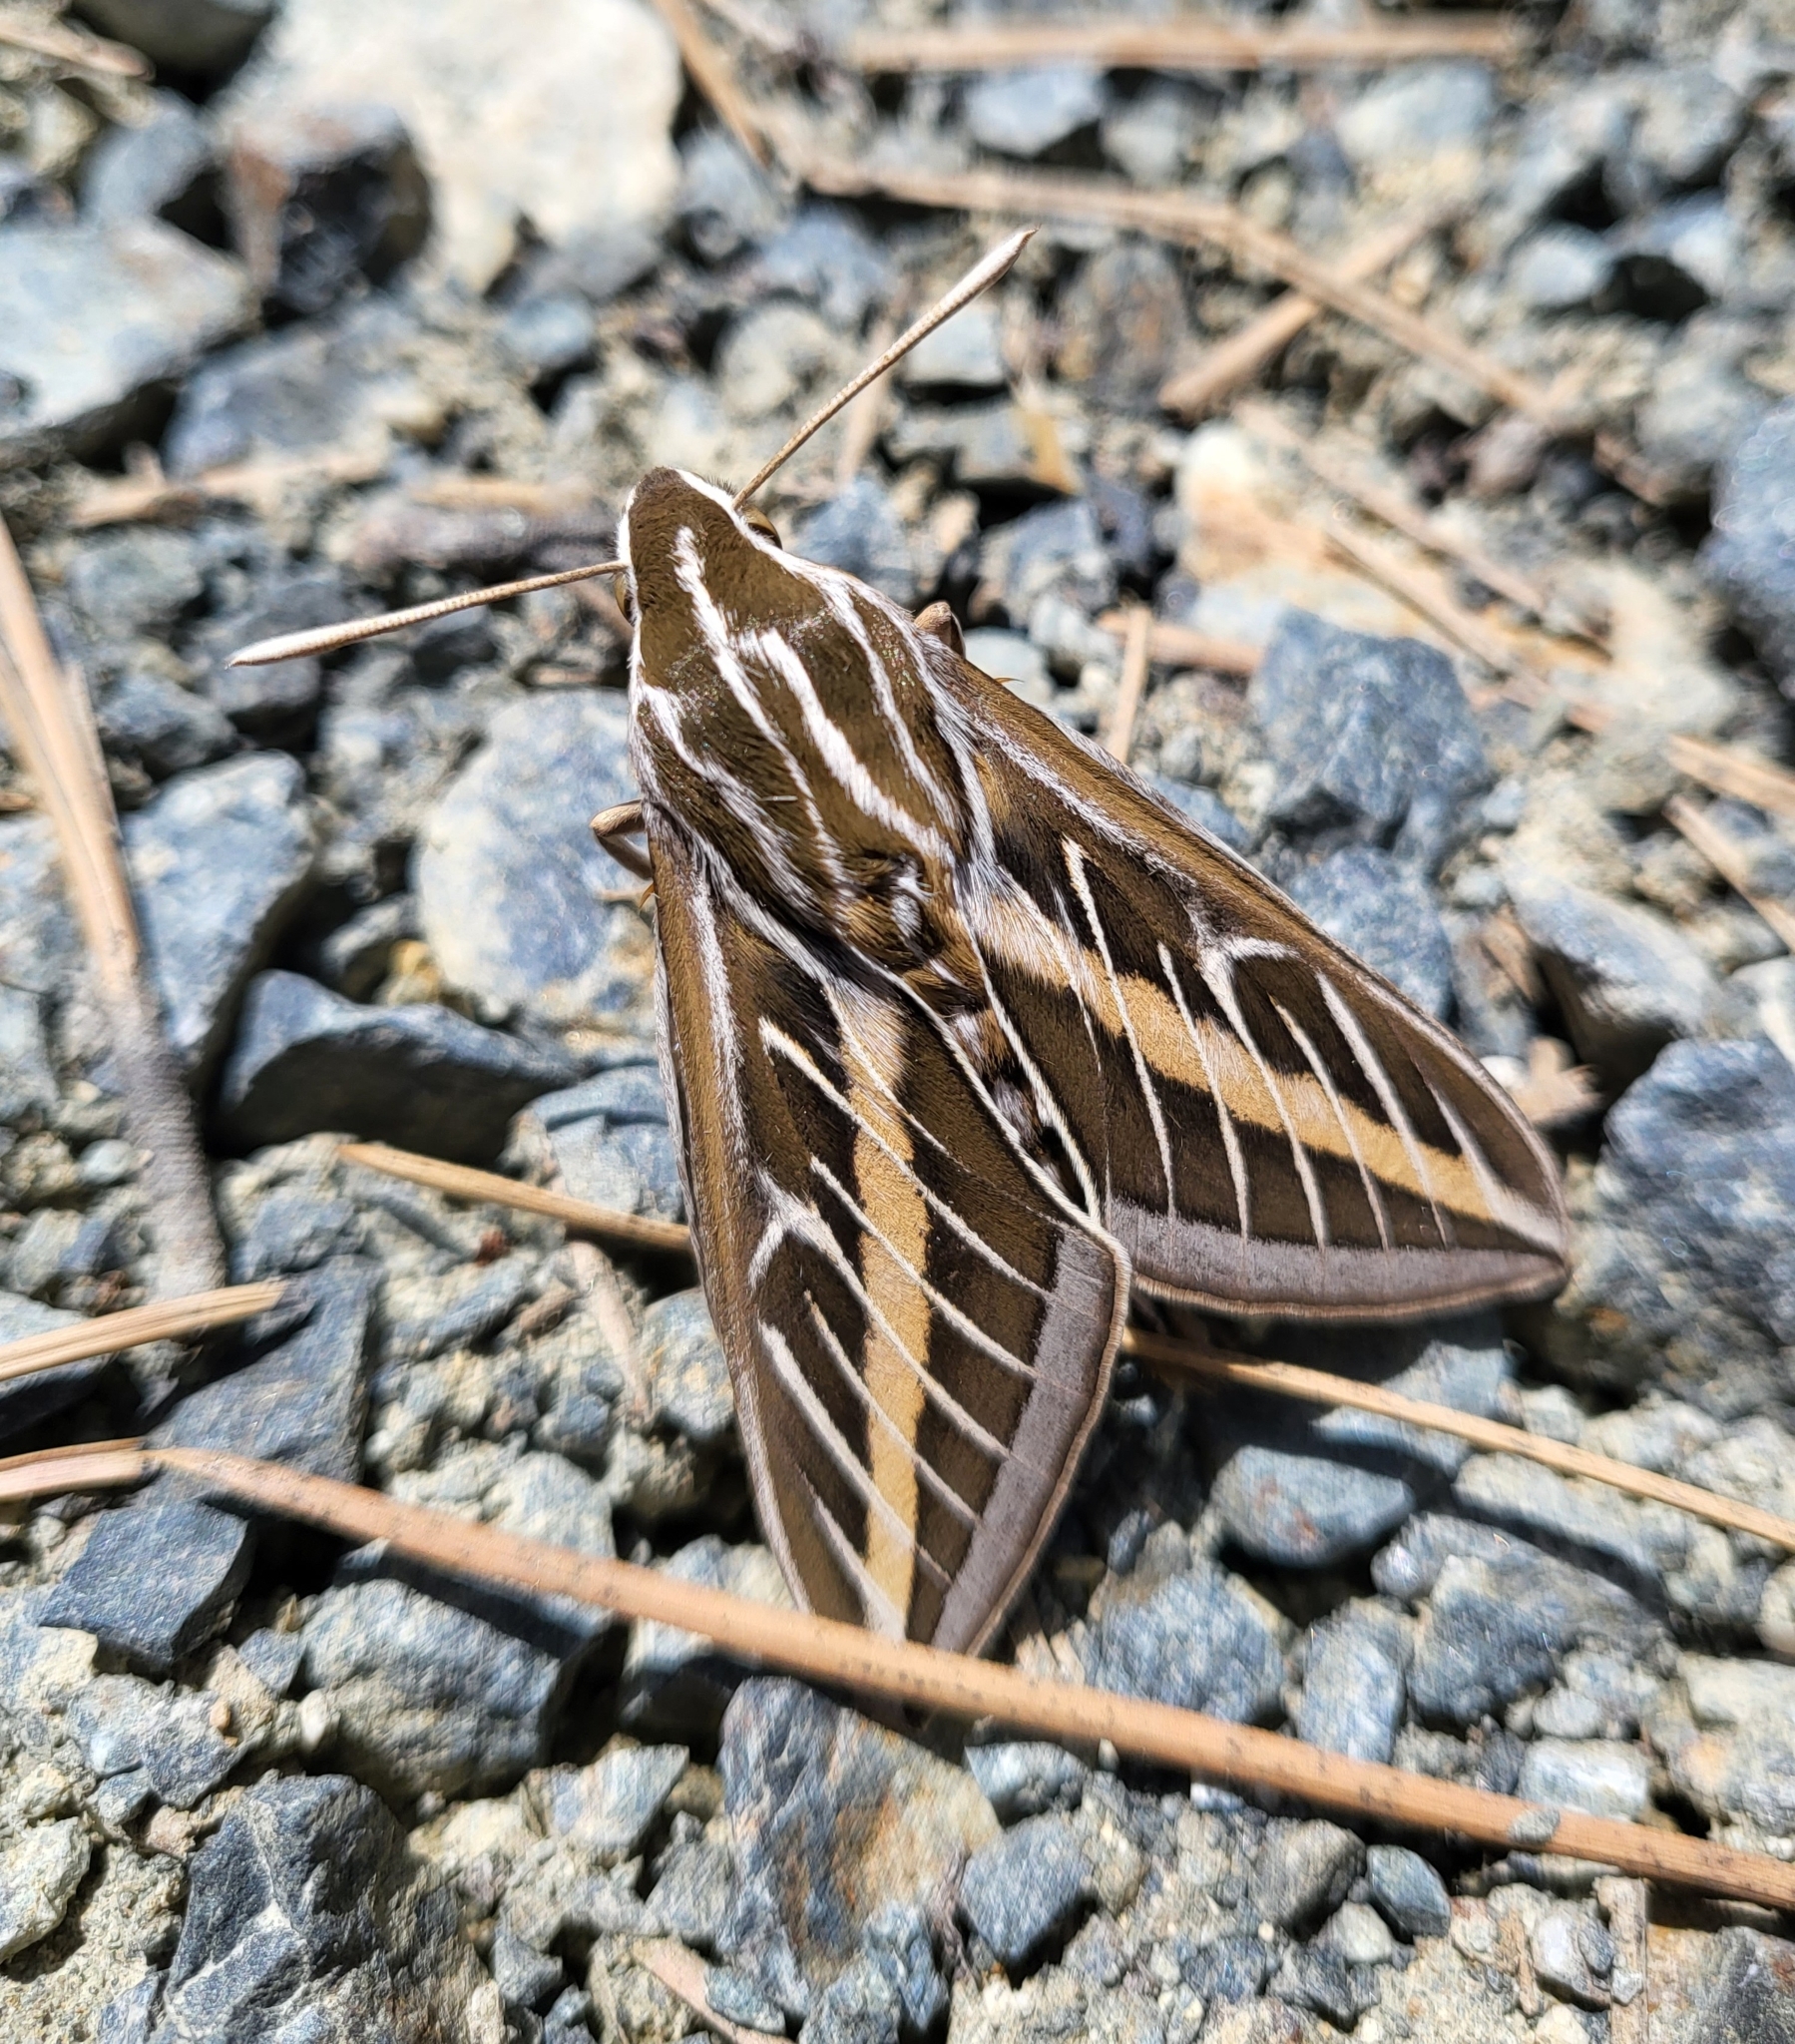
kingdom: Animalia
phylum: Arthropoda
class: Insecta
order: Lepidoptera
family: Sphingidae
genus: Hyles
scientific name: Hyles lineata
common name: White-lined sphinx
